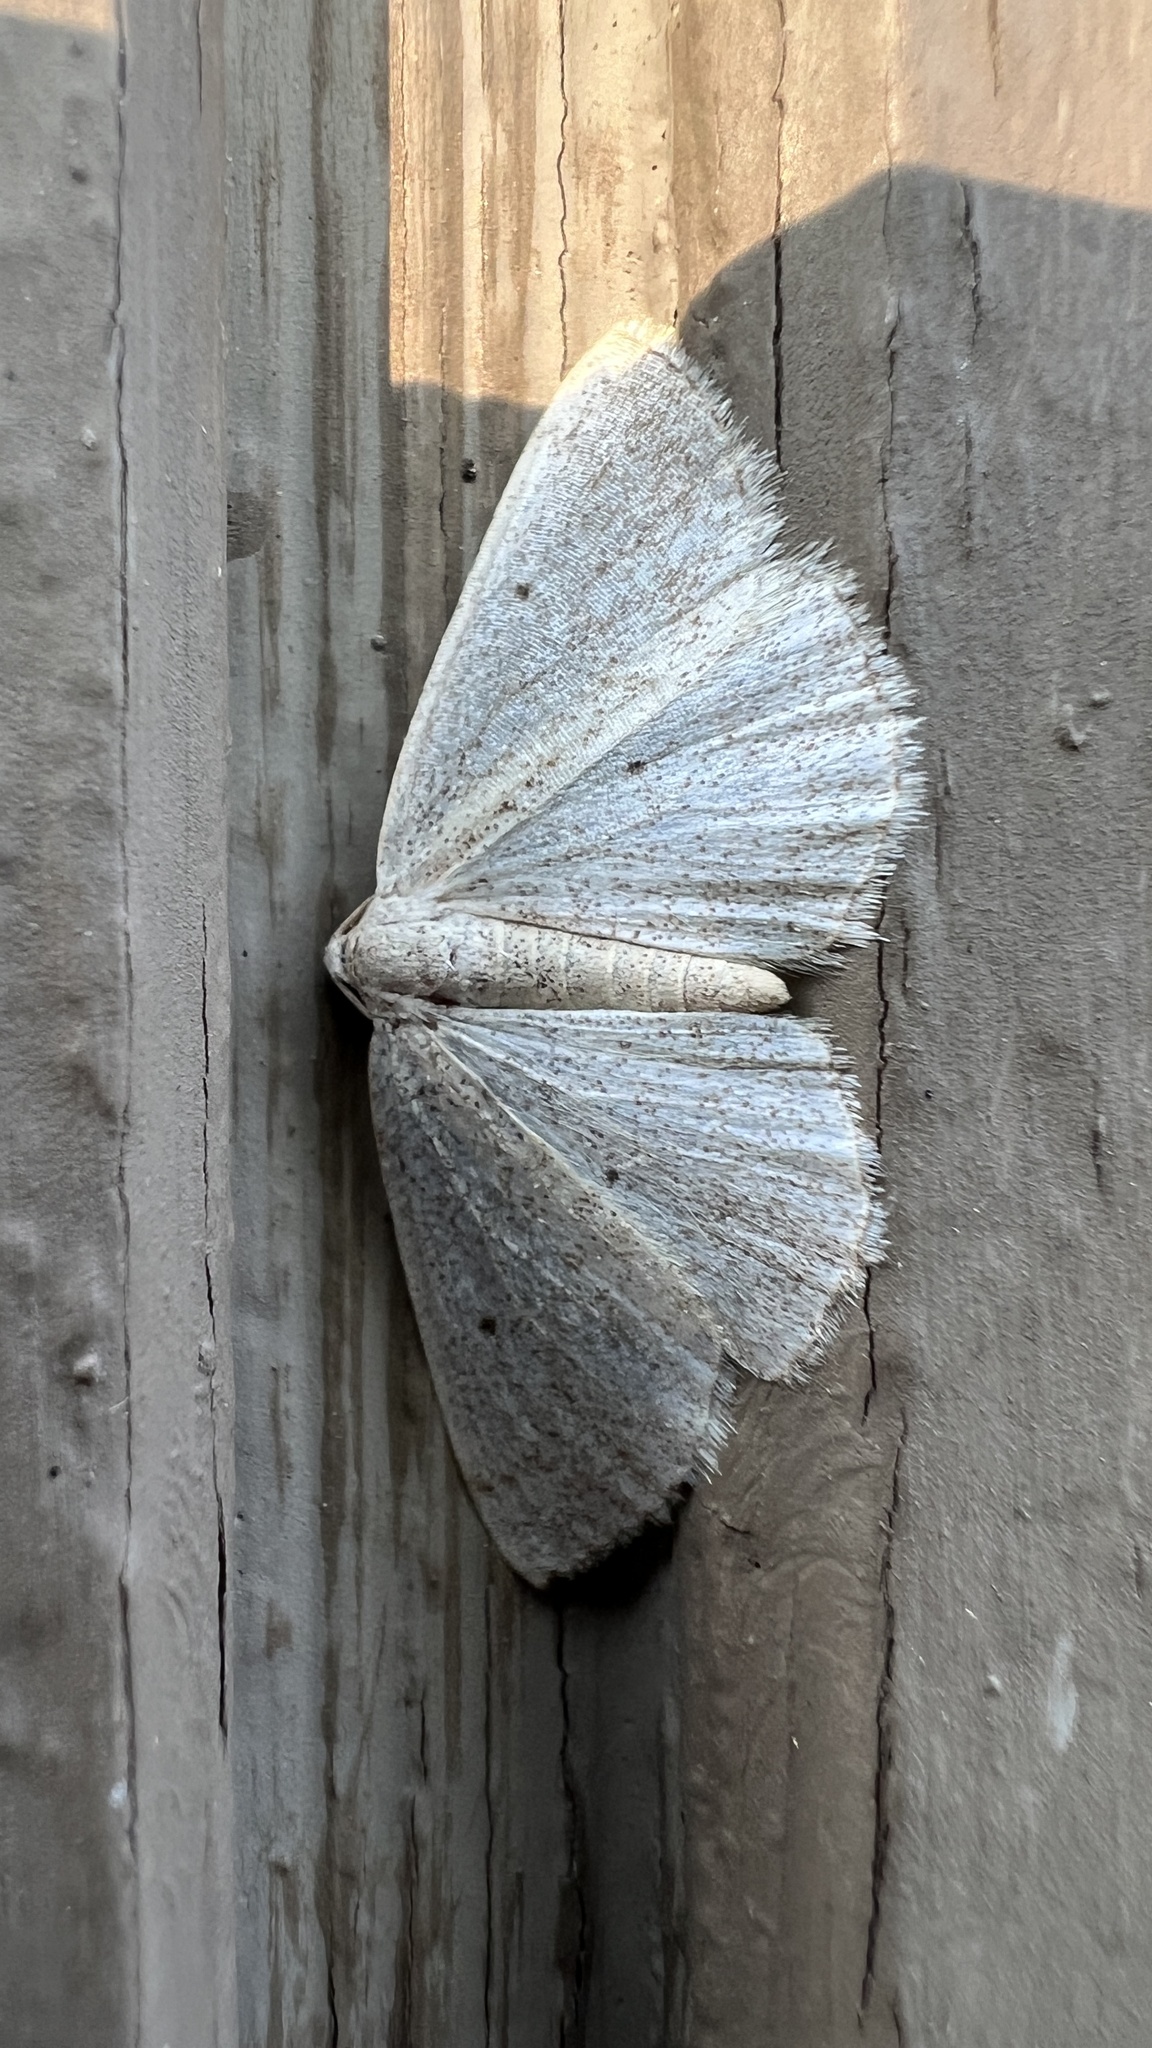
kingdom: Animalia
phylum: Arthropoda
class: Insecta
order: Lepidoptera
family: Geometridae
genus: Lomographa
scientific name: Lomographa glomeraria
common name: Gray spring moth
